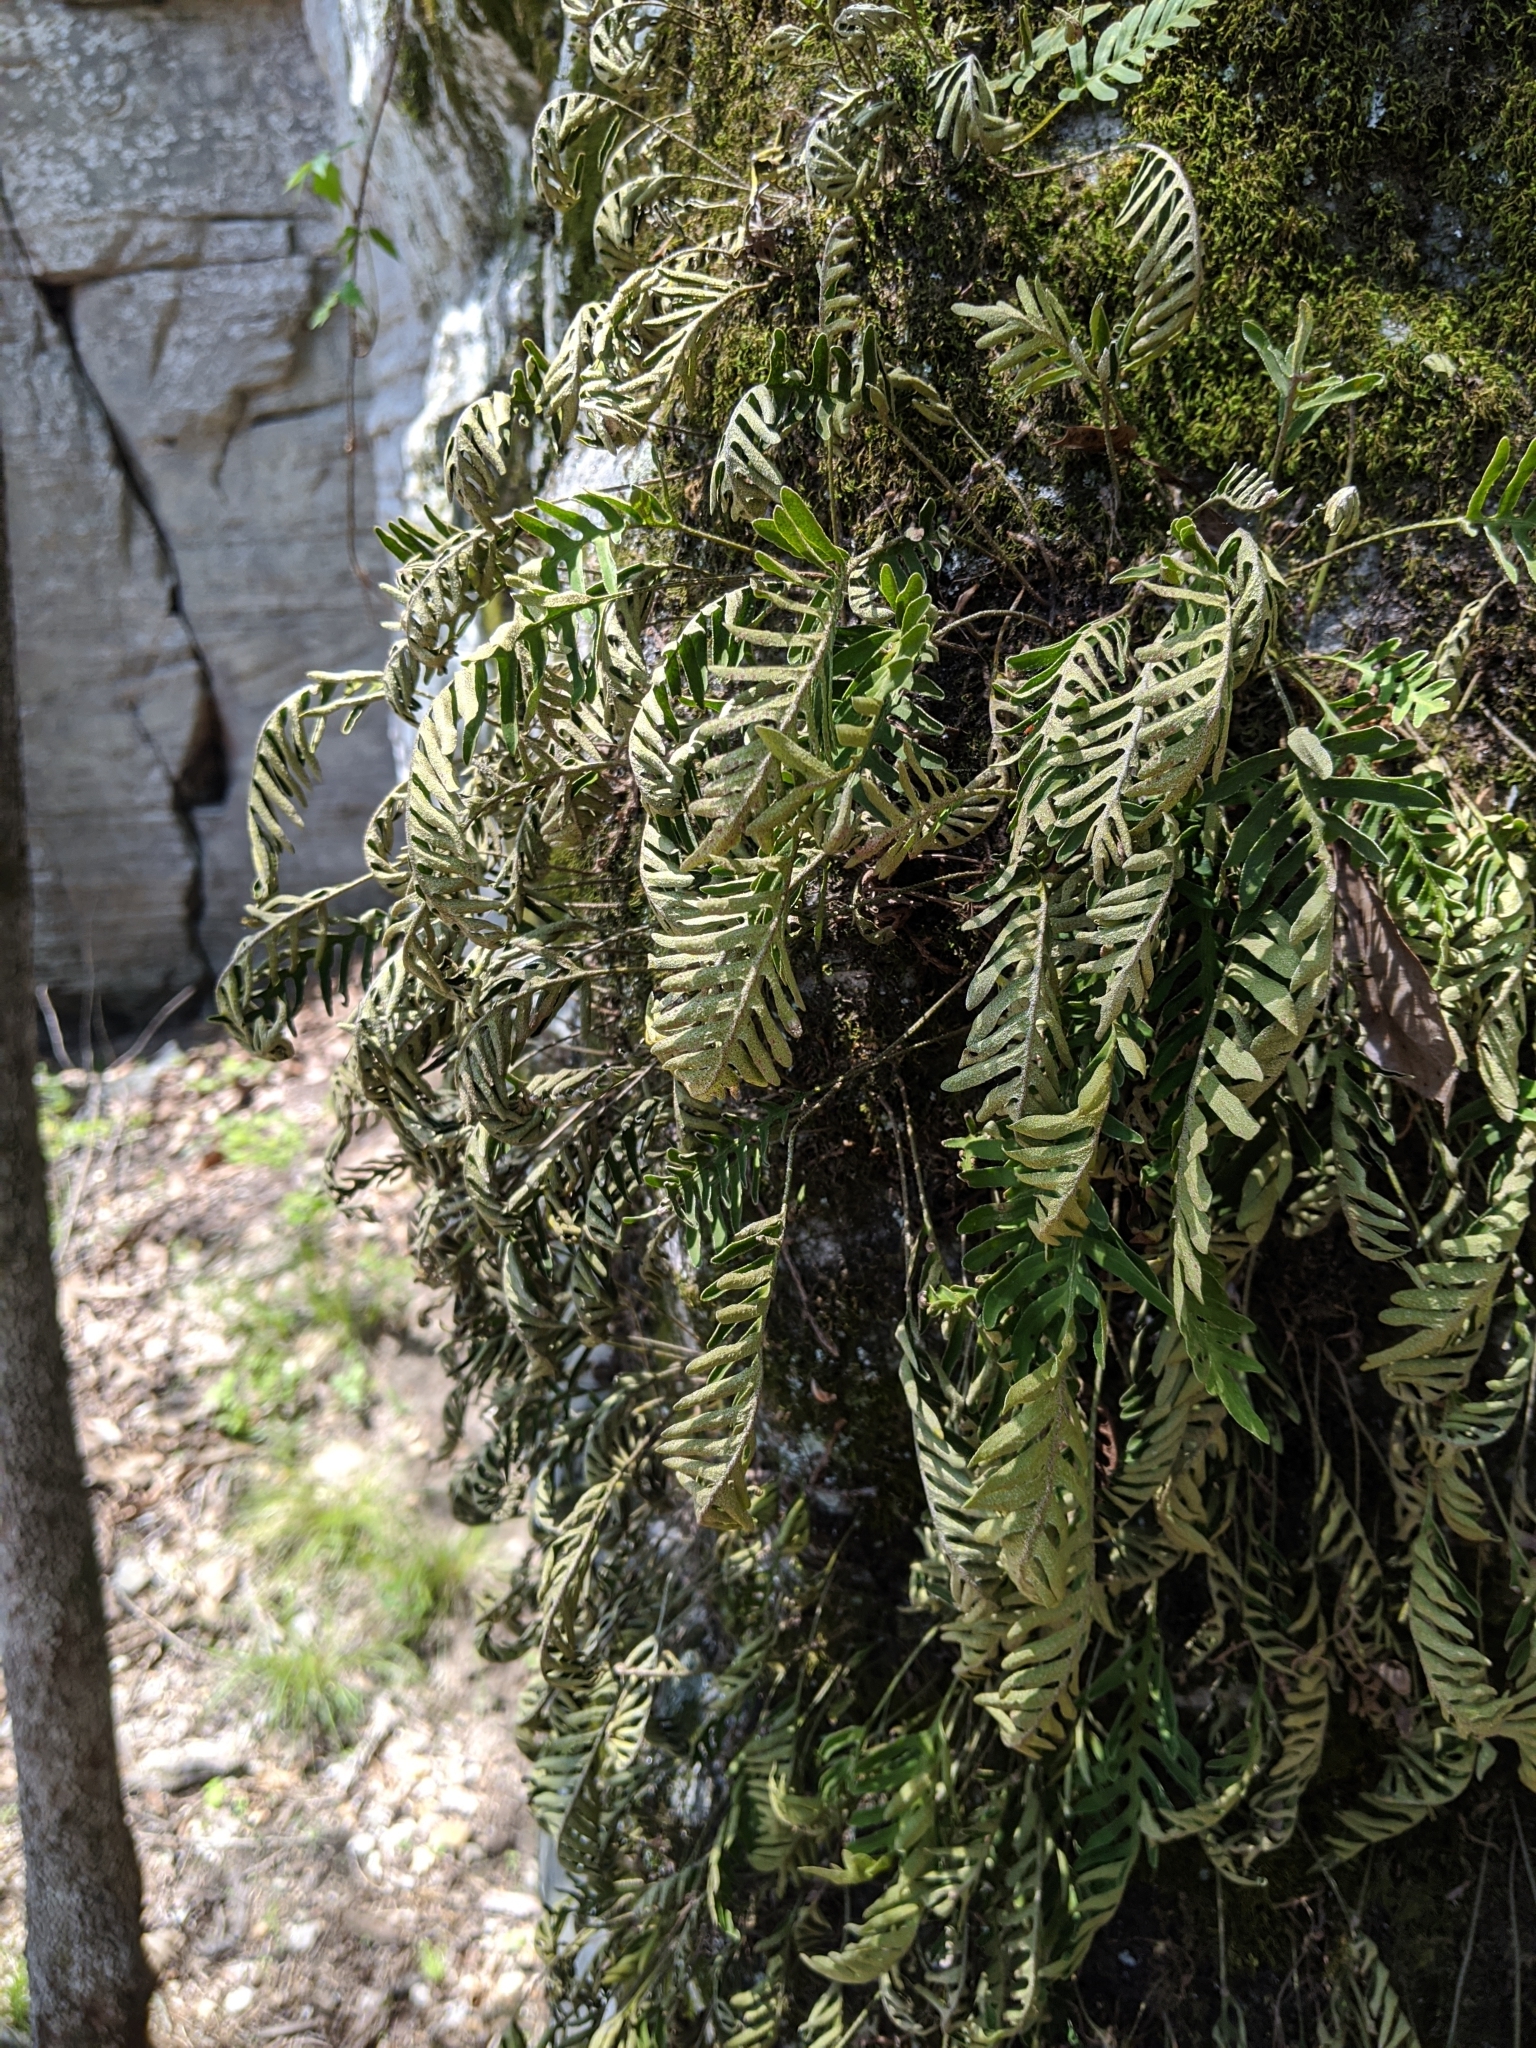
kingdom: Plantae
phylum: Tracheophyta
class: Polypodiopsida
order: Polypodiales
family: Polypodiaceae
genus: Pleopeltis
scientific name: Pleopeltis michauxiana
